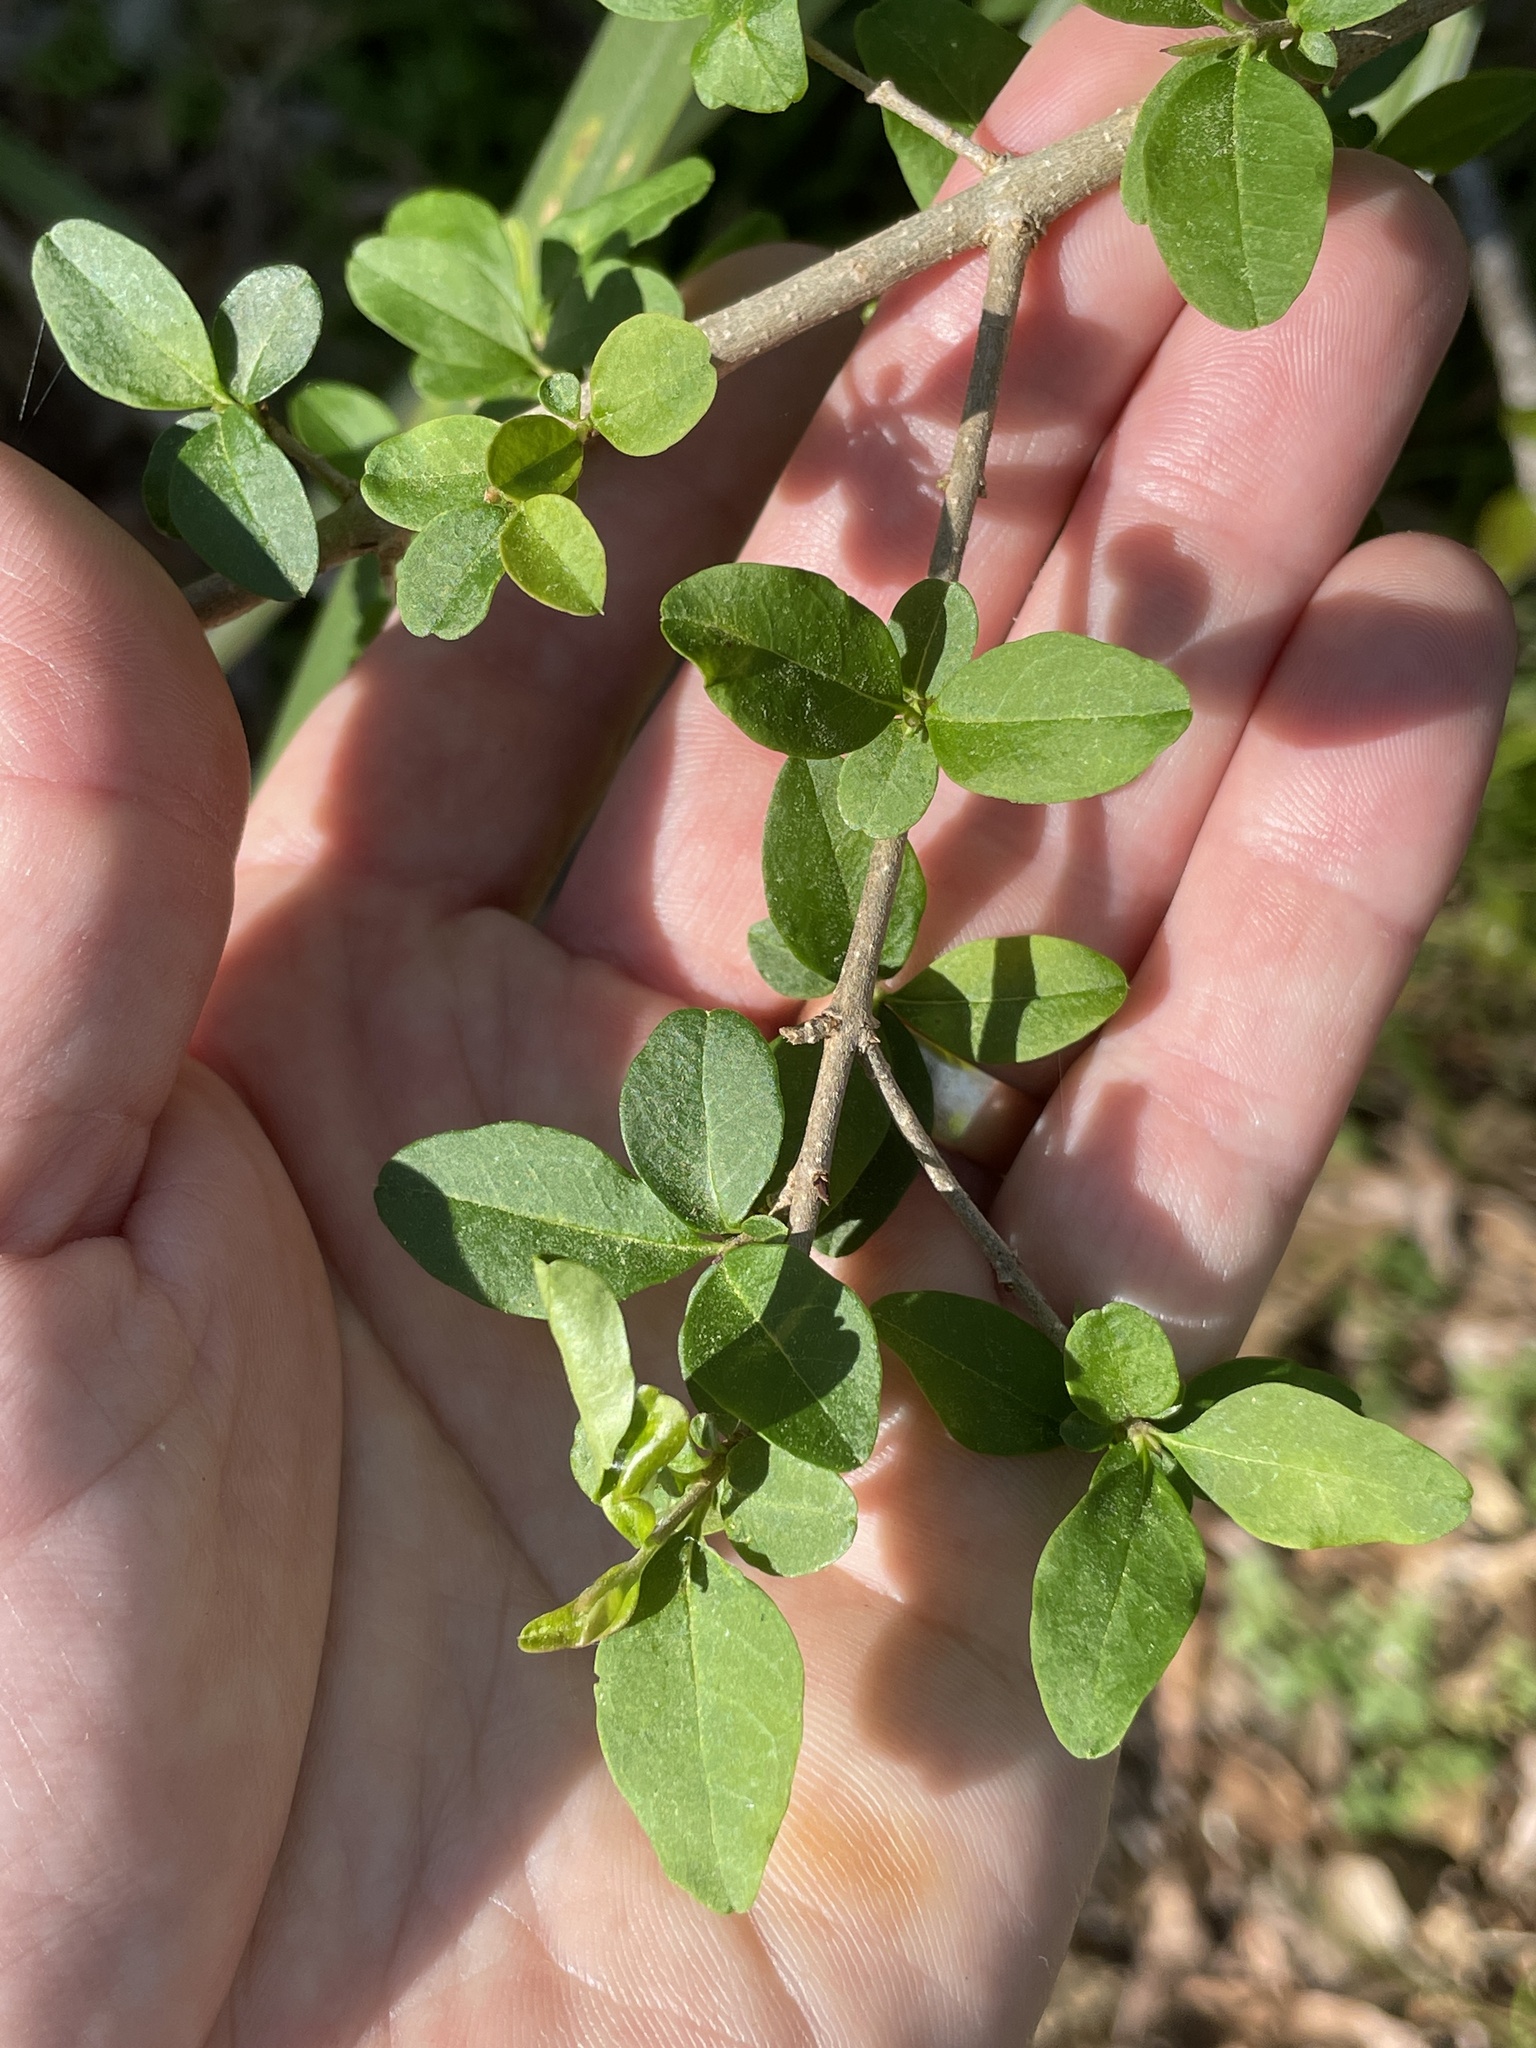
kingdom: Plantae
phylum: Tracheophyta
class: Magnoliopsida
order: Lamiales
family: Oleaceae
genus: Ligustrum
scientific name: Ligustrum sinense
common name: Chinese privet
